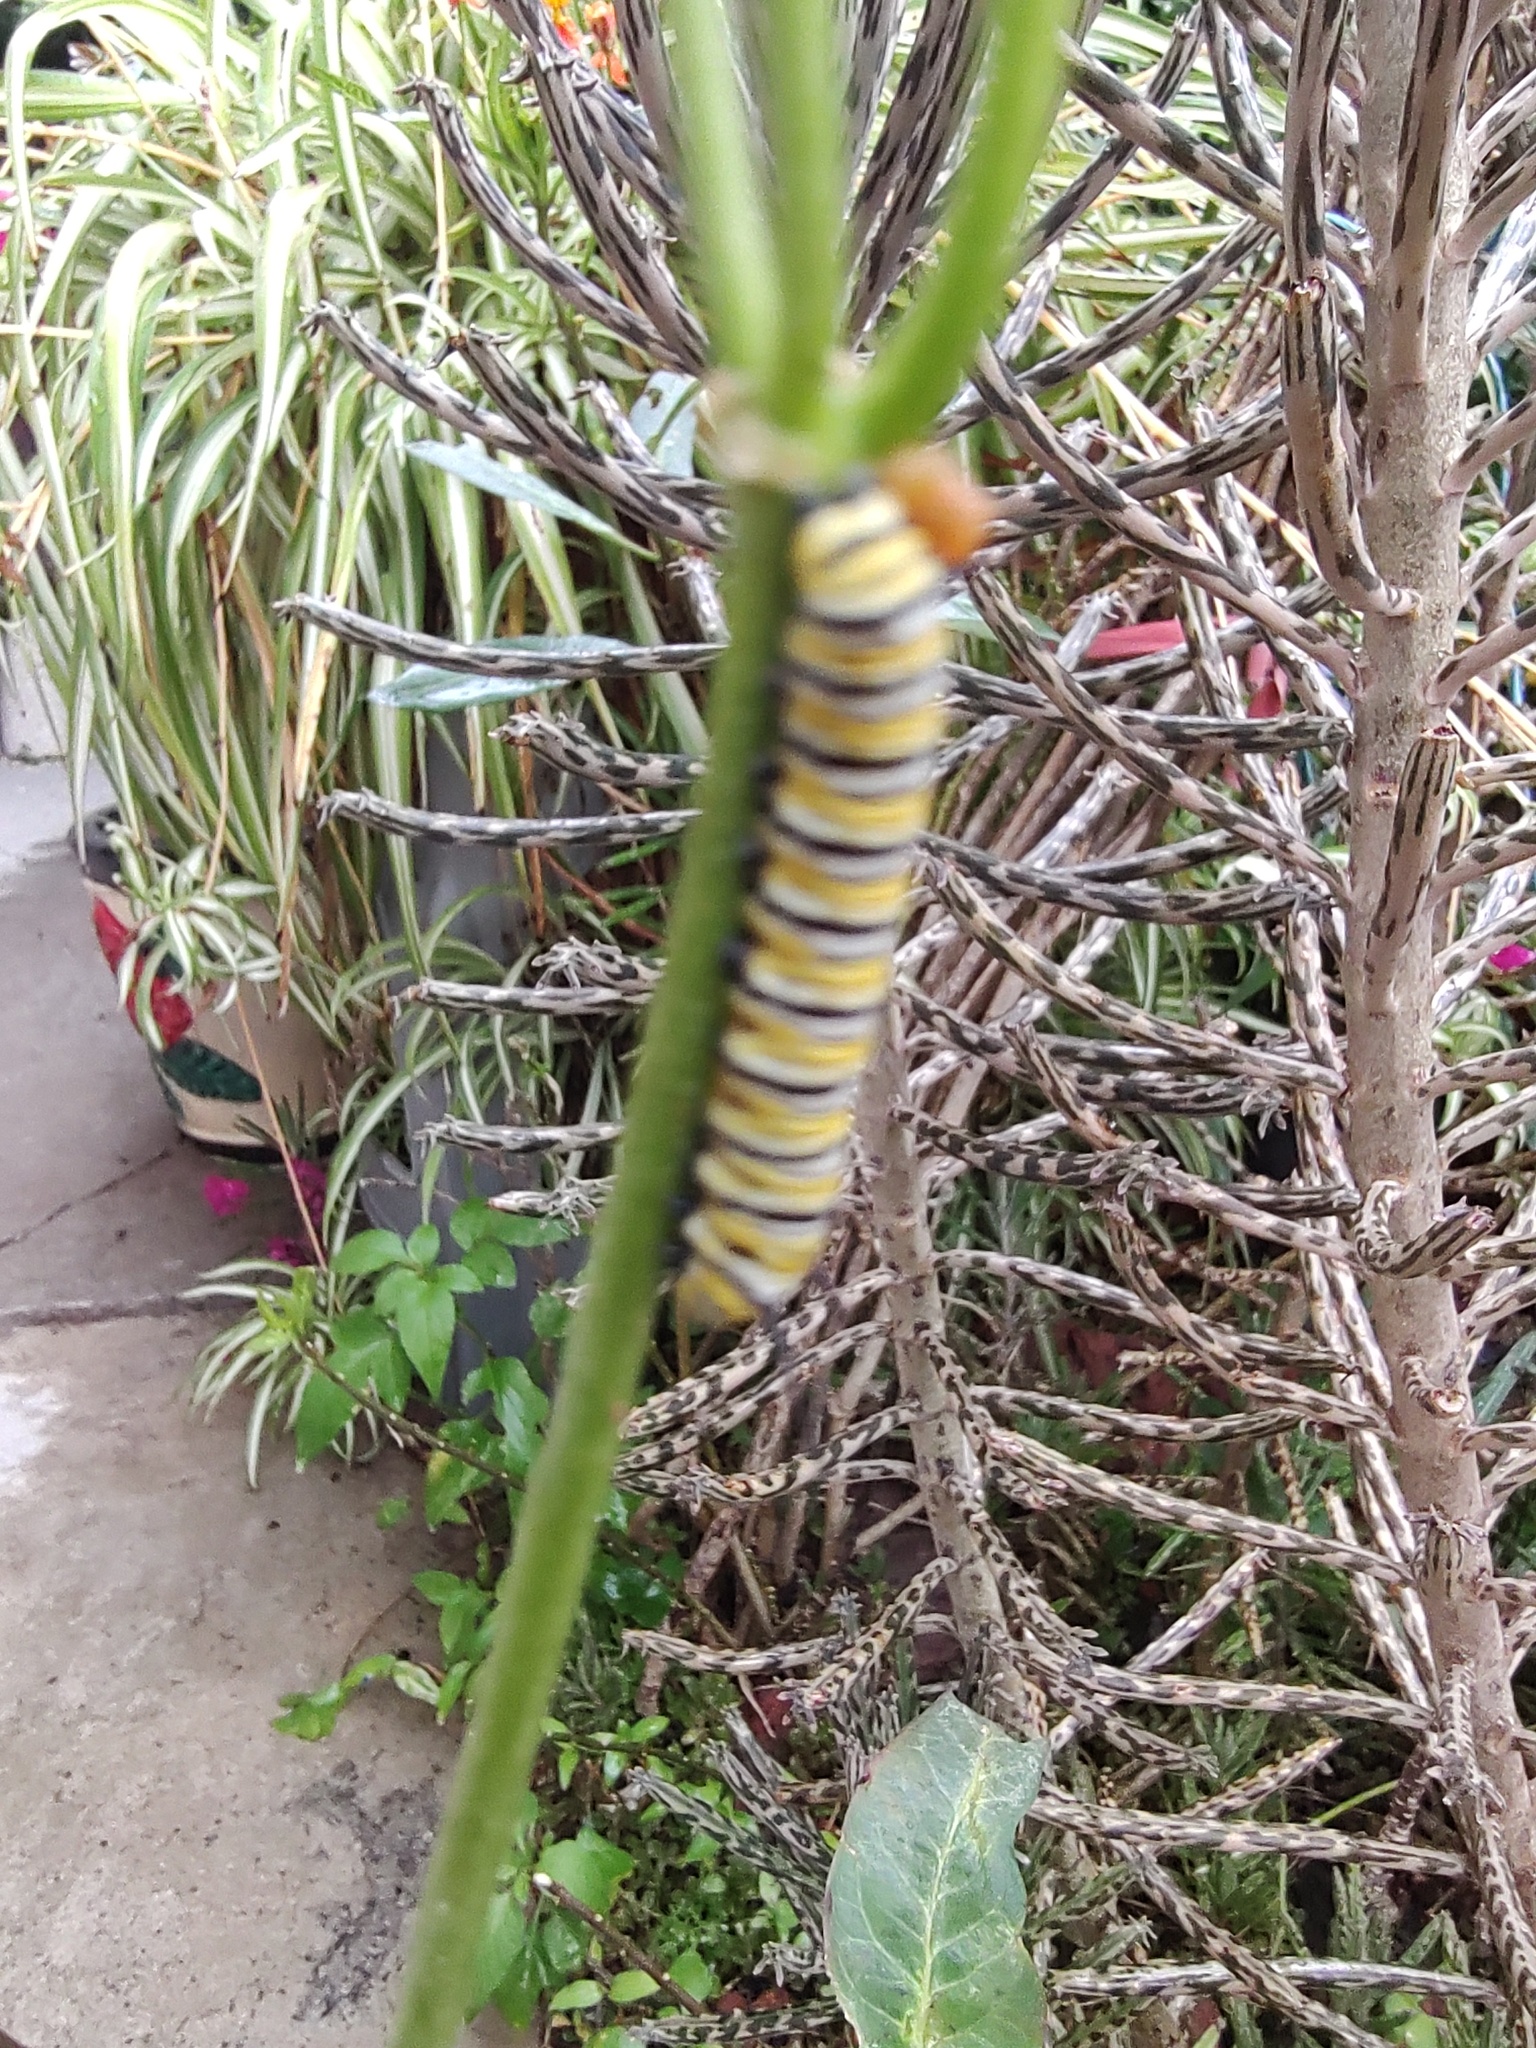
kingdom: Animalia
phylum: Arthropoda
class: Insecta
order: Lepidoptera
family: Nymphalidae
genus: Danaus
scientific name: Danaus plexippus
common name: Monarch
